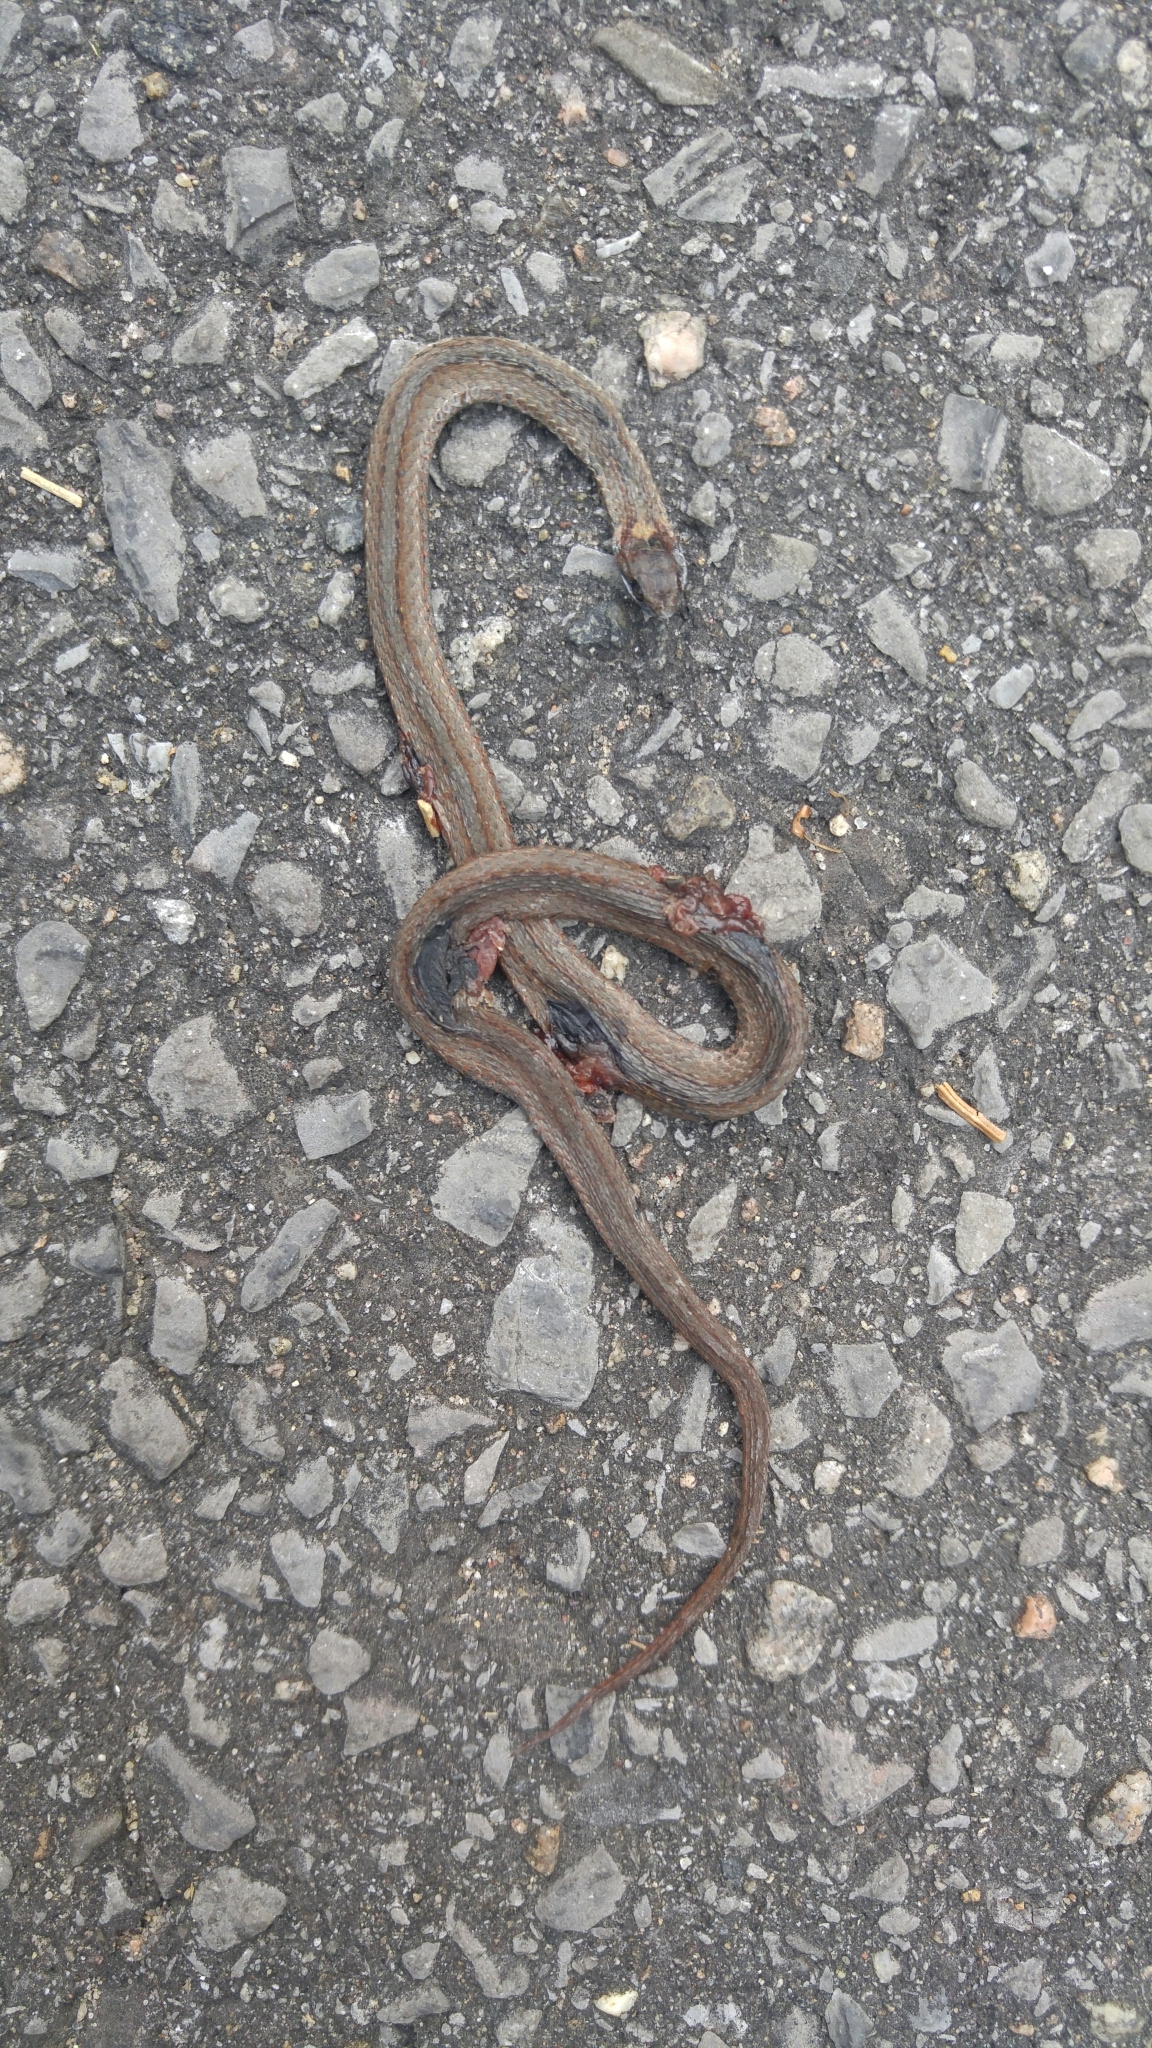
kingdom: Animalia
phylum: Chordata
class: Squamata
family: Colubridae
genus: Storeria
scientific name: Storeria occipitomaculata
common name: Redbelly snake
